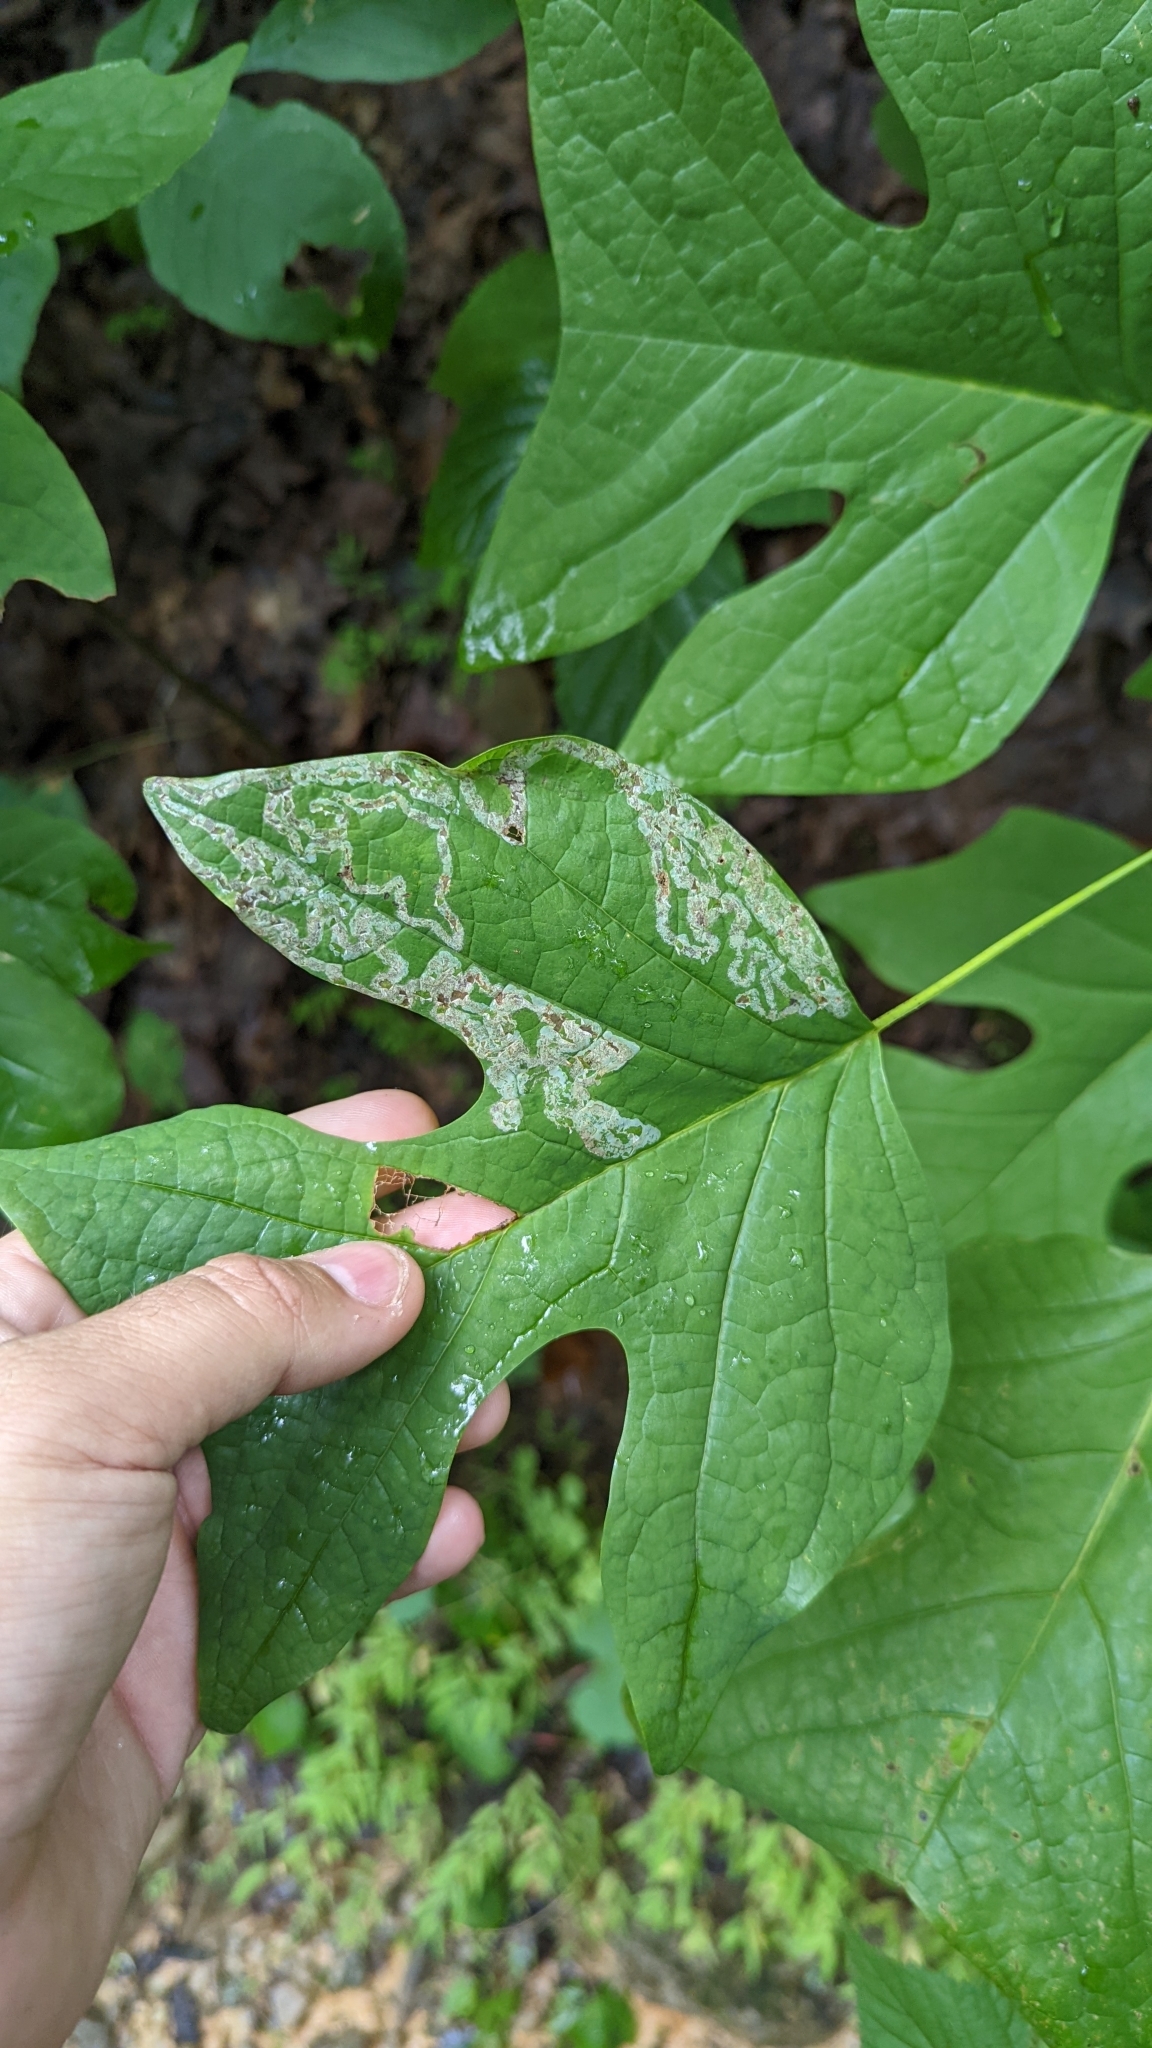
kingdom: Animalia
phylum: Arthropoda
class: Insecta
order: Lepidoptera
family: Gracillariidae
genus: Phyllocnistis
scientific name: Phyllocnistis liriodendronella
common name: Tulip tree leaf miner
